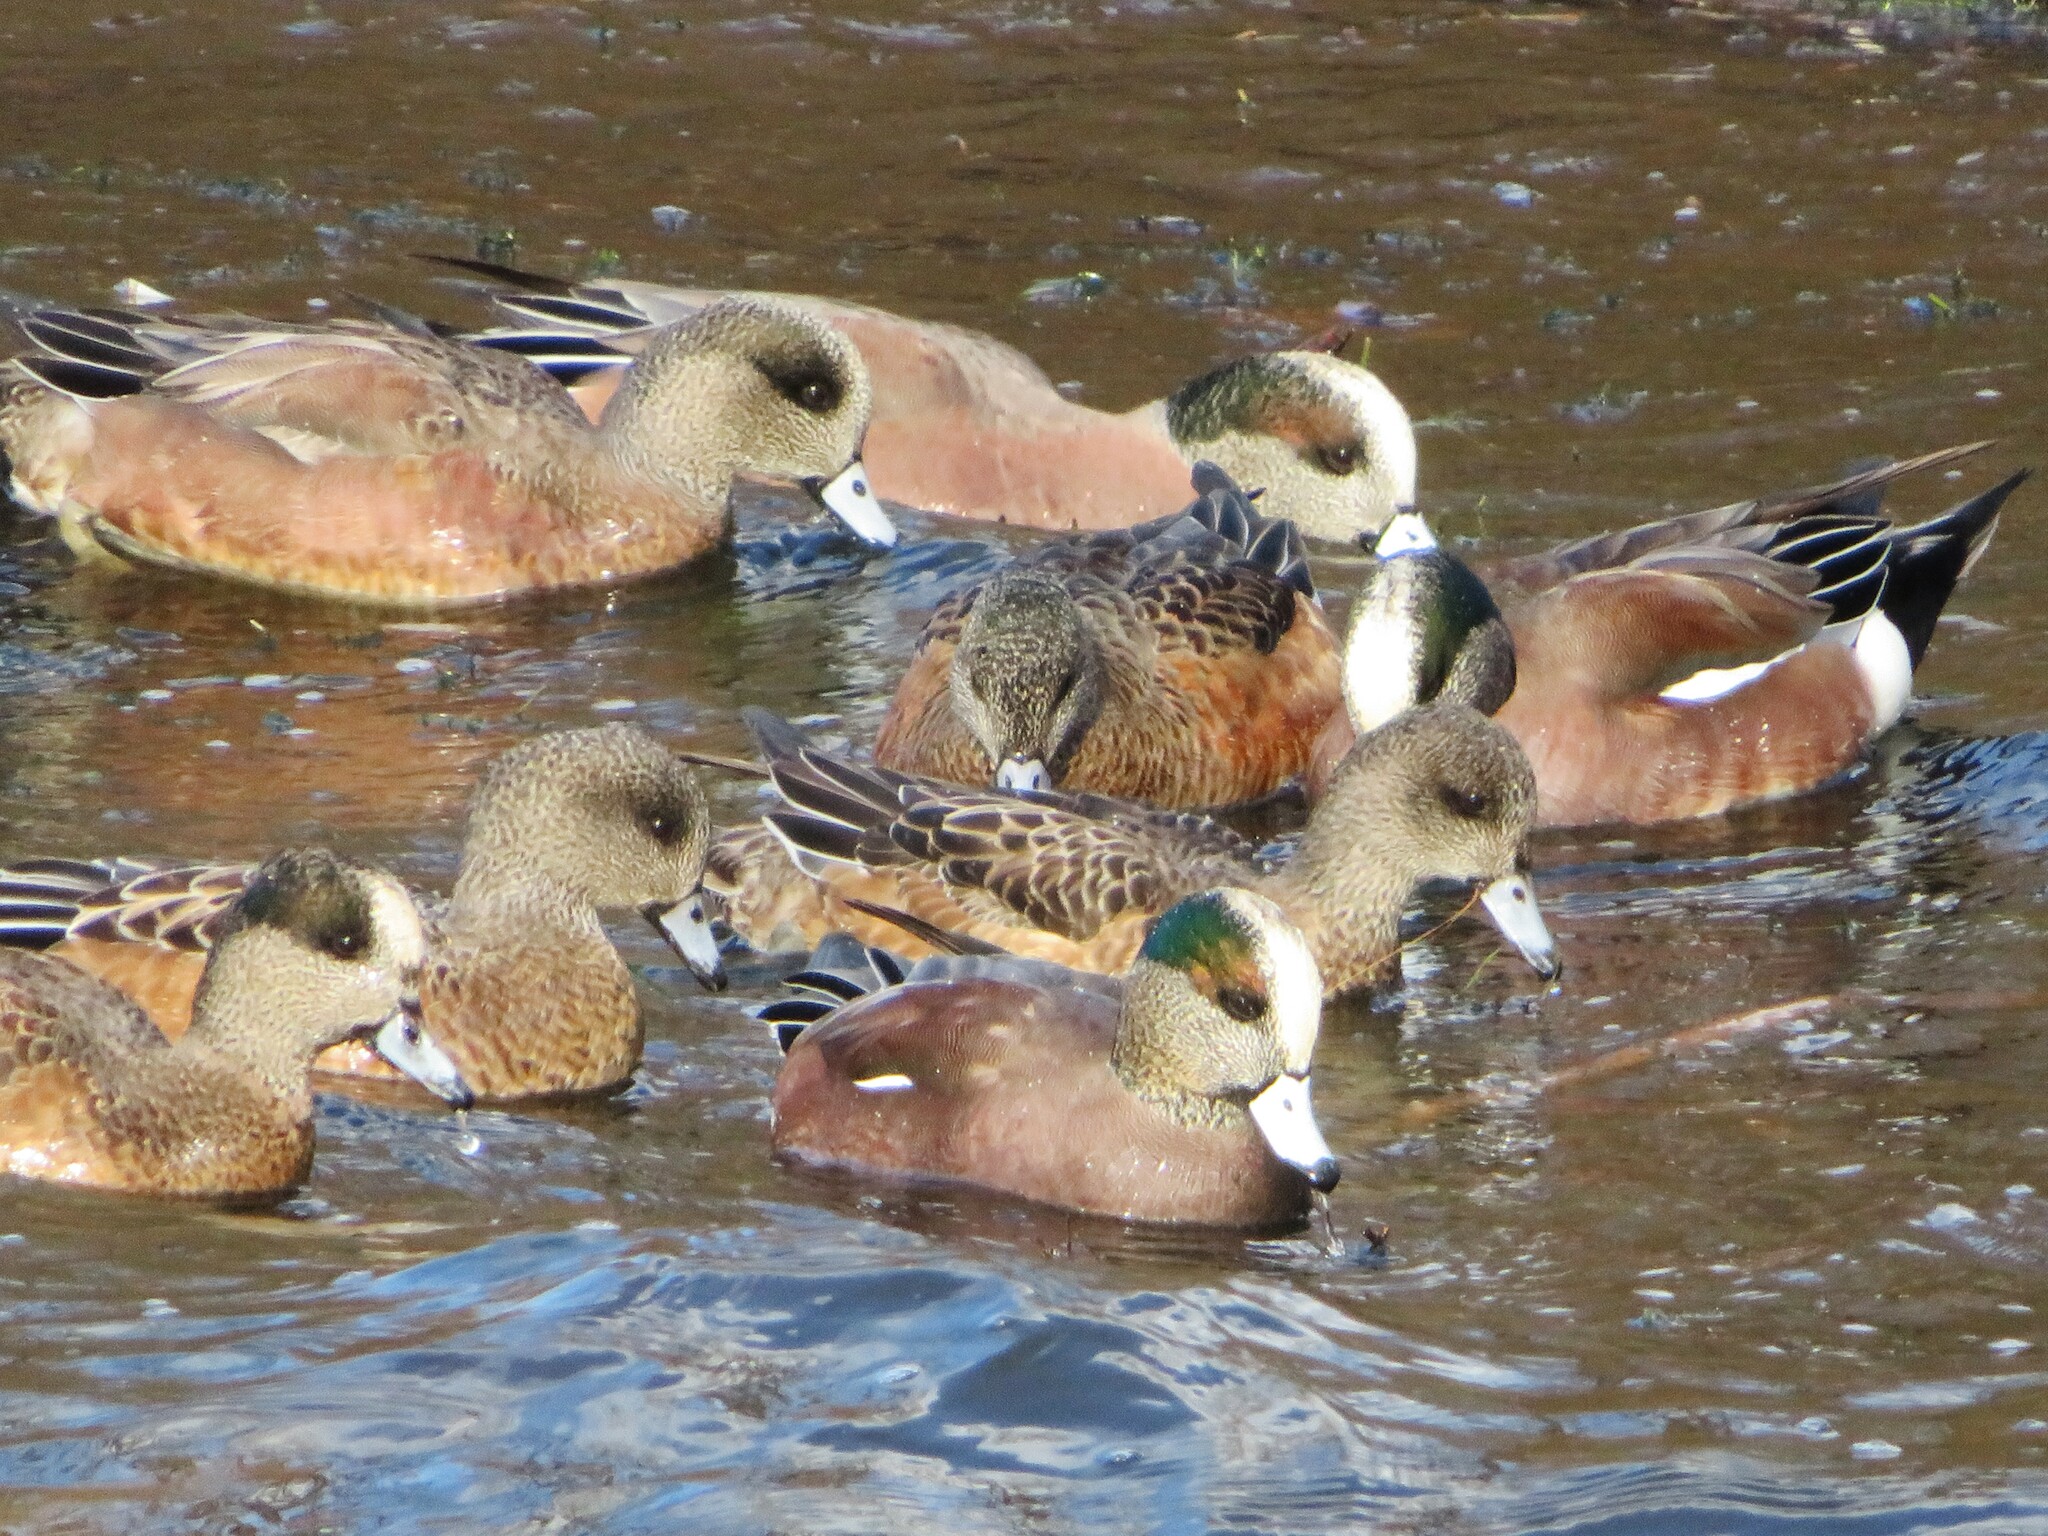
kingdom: Animalia
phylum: Chordata
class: Aves
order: Anseriformes
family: Anatidae
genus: Mareca
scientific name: Mareca americana
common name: American wigeon
